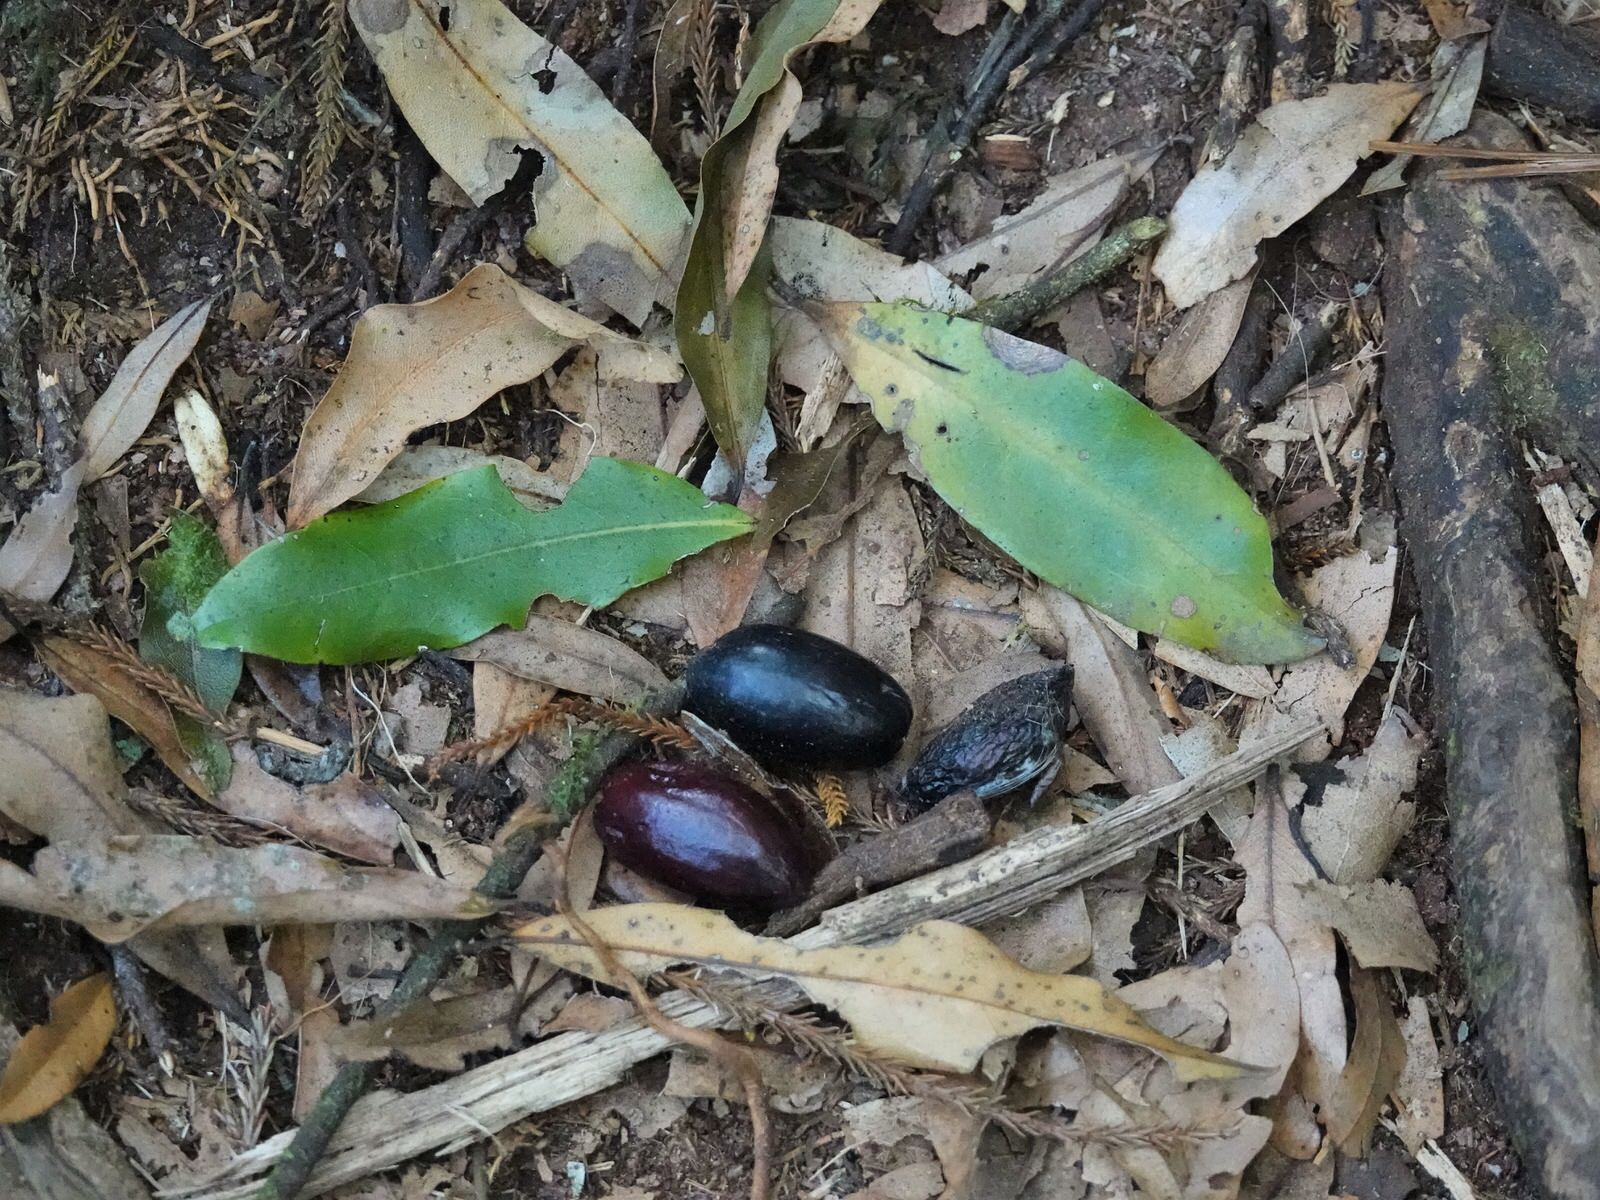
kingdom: Plantae
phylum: Tracheophyta
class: Magnoliopsida
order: Laurales
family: Lauraceae
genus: Beilschmiedia
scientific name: Beilschmiedia tawa
